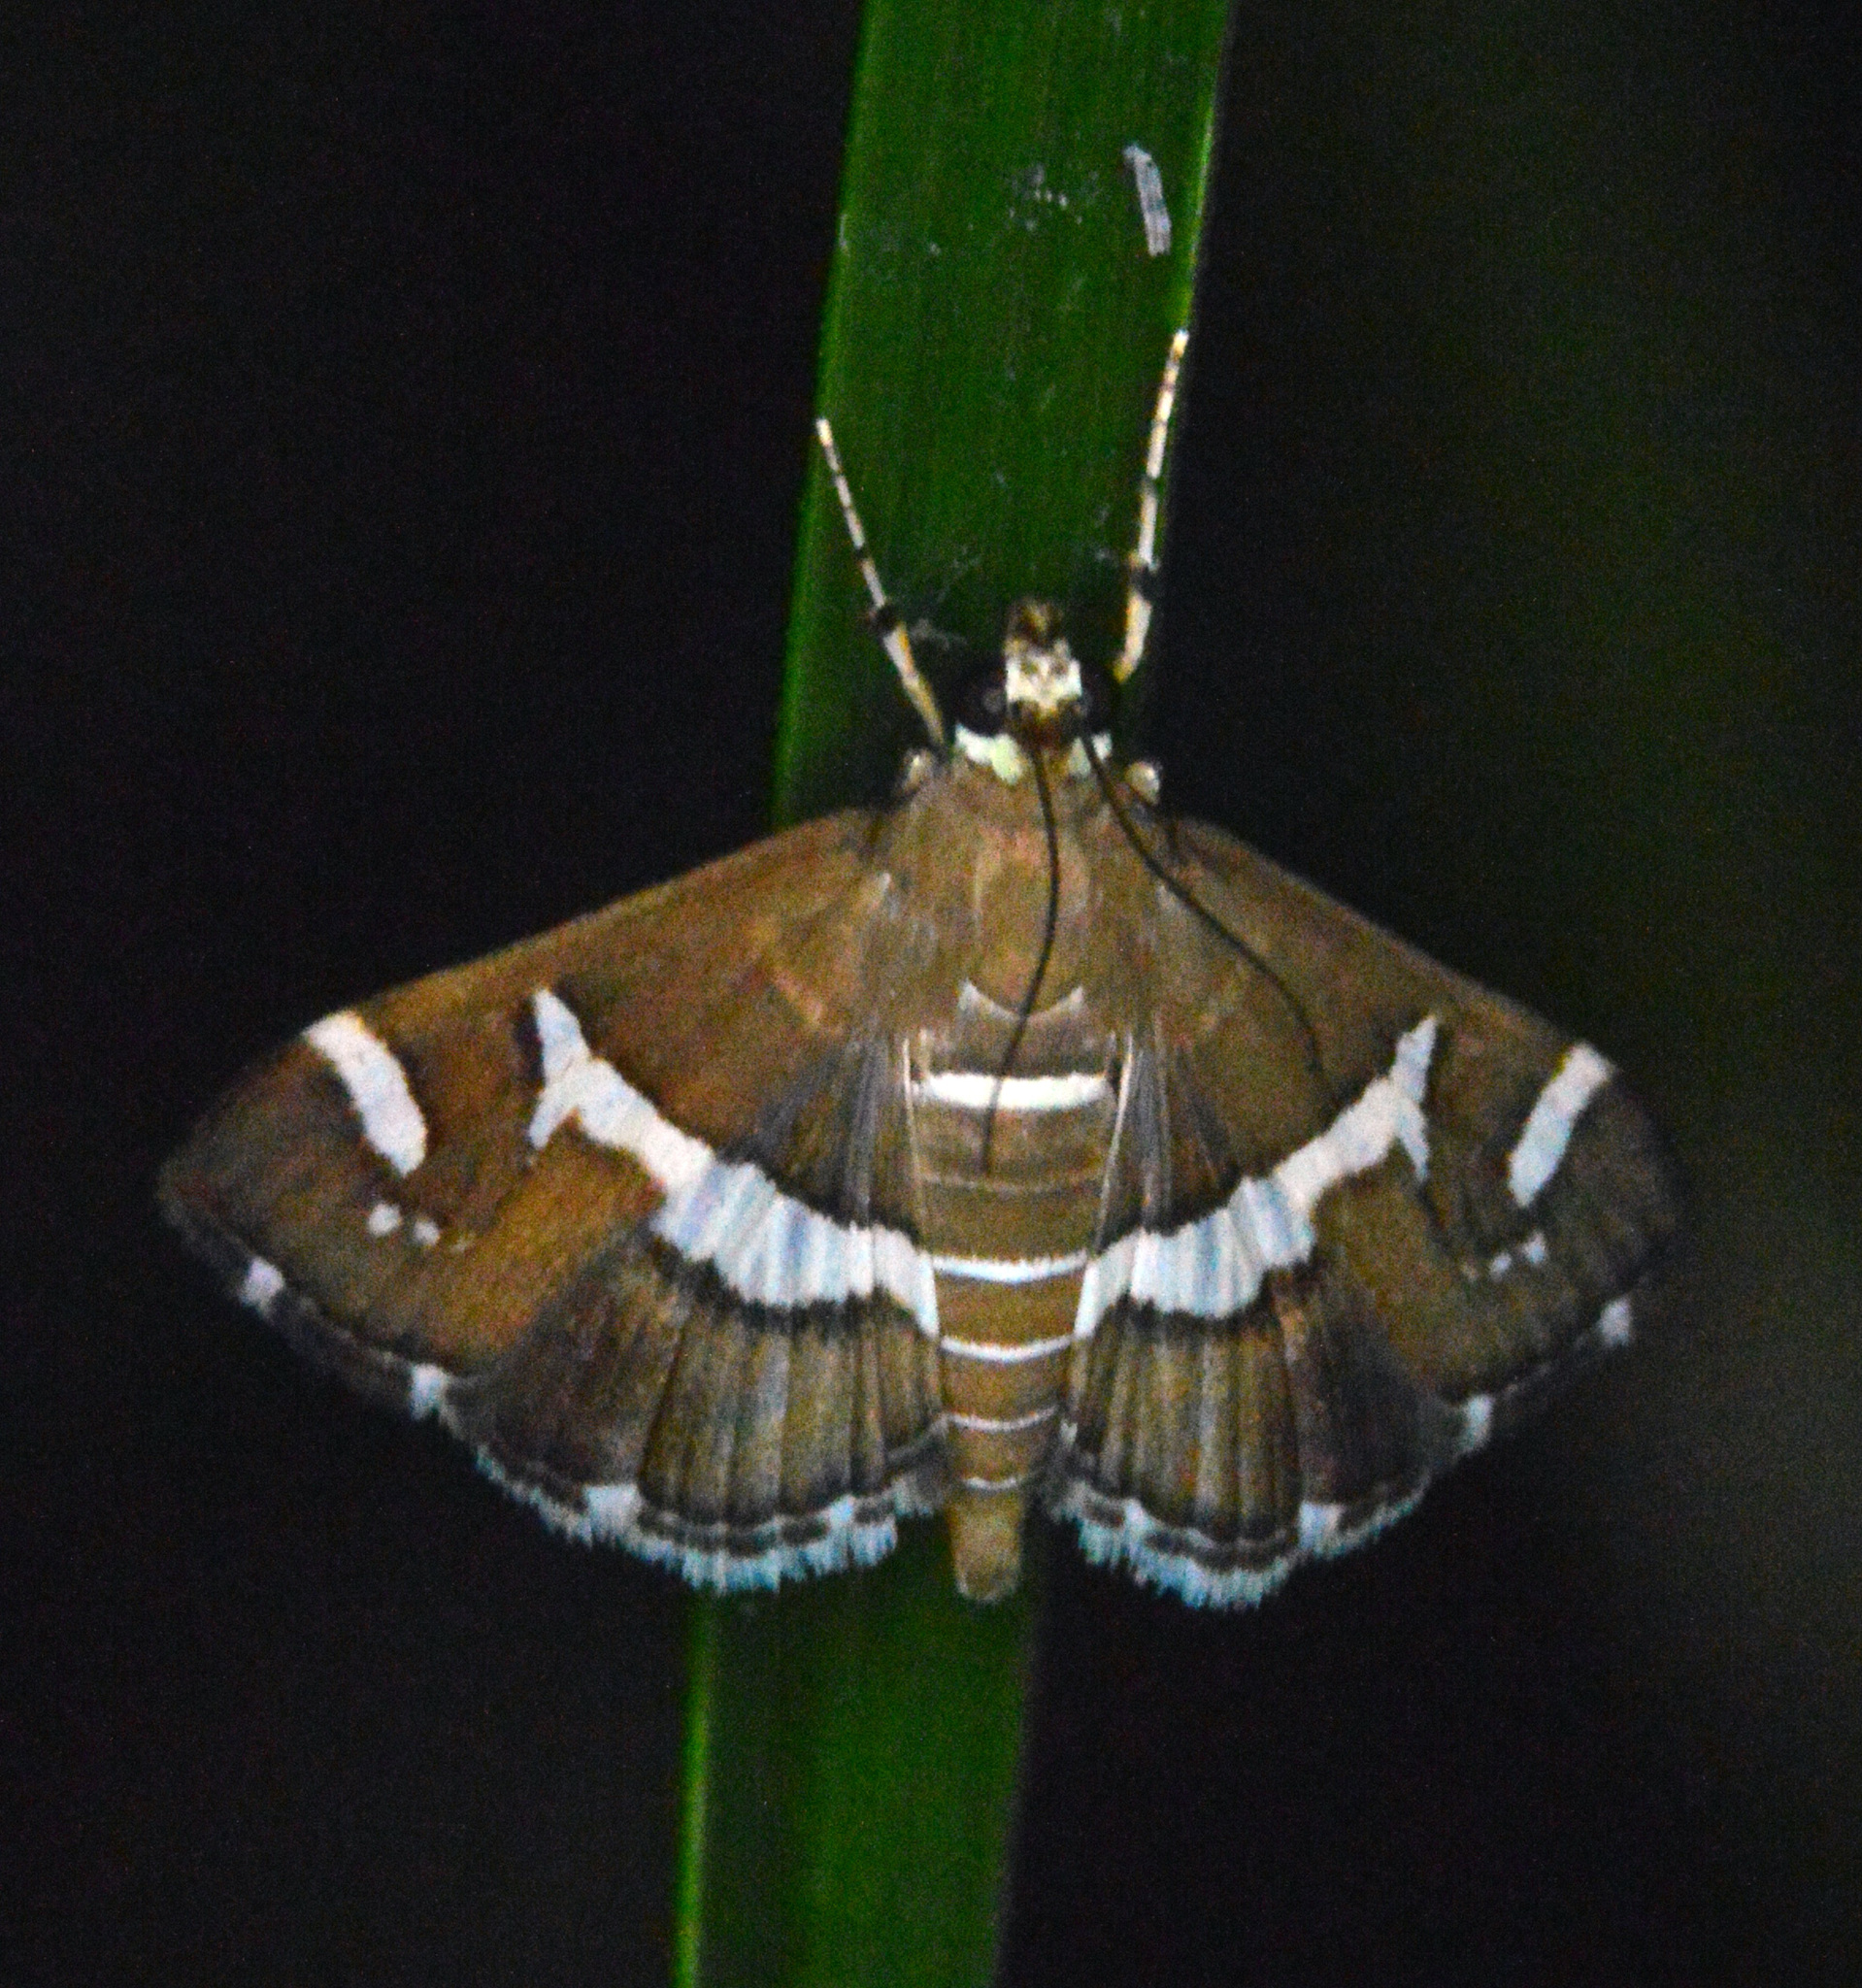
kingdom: Animalia
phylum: Arthropoda
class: Insecta
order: Lepidoptera
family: Crambidae
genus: Spoladea
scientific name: Spoladea recurvalis
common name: Beet webworm moth
